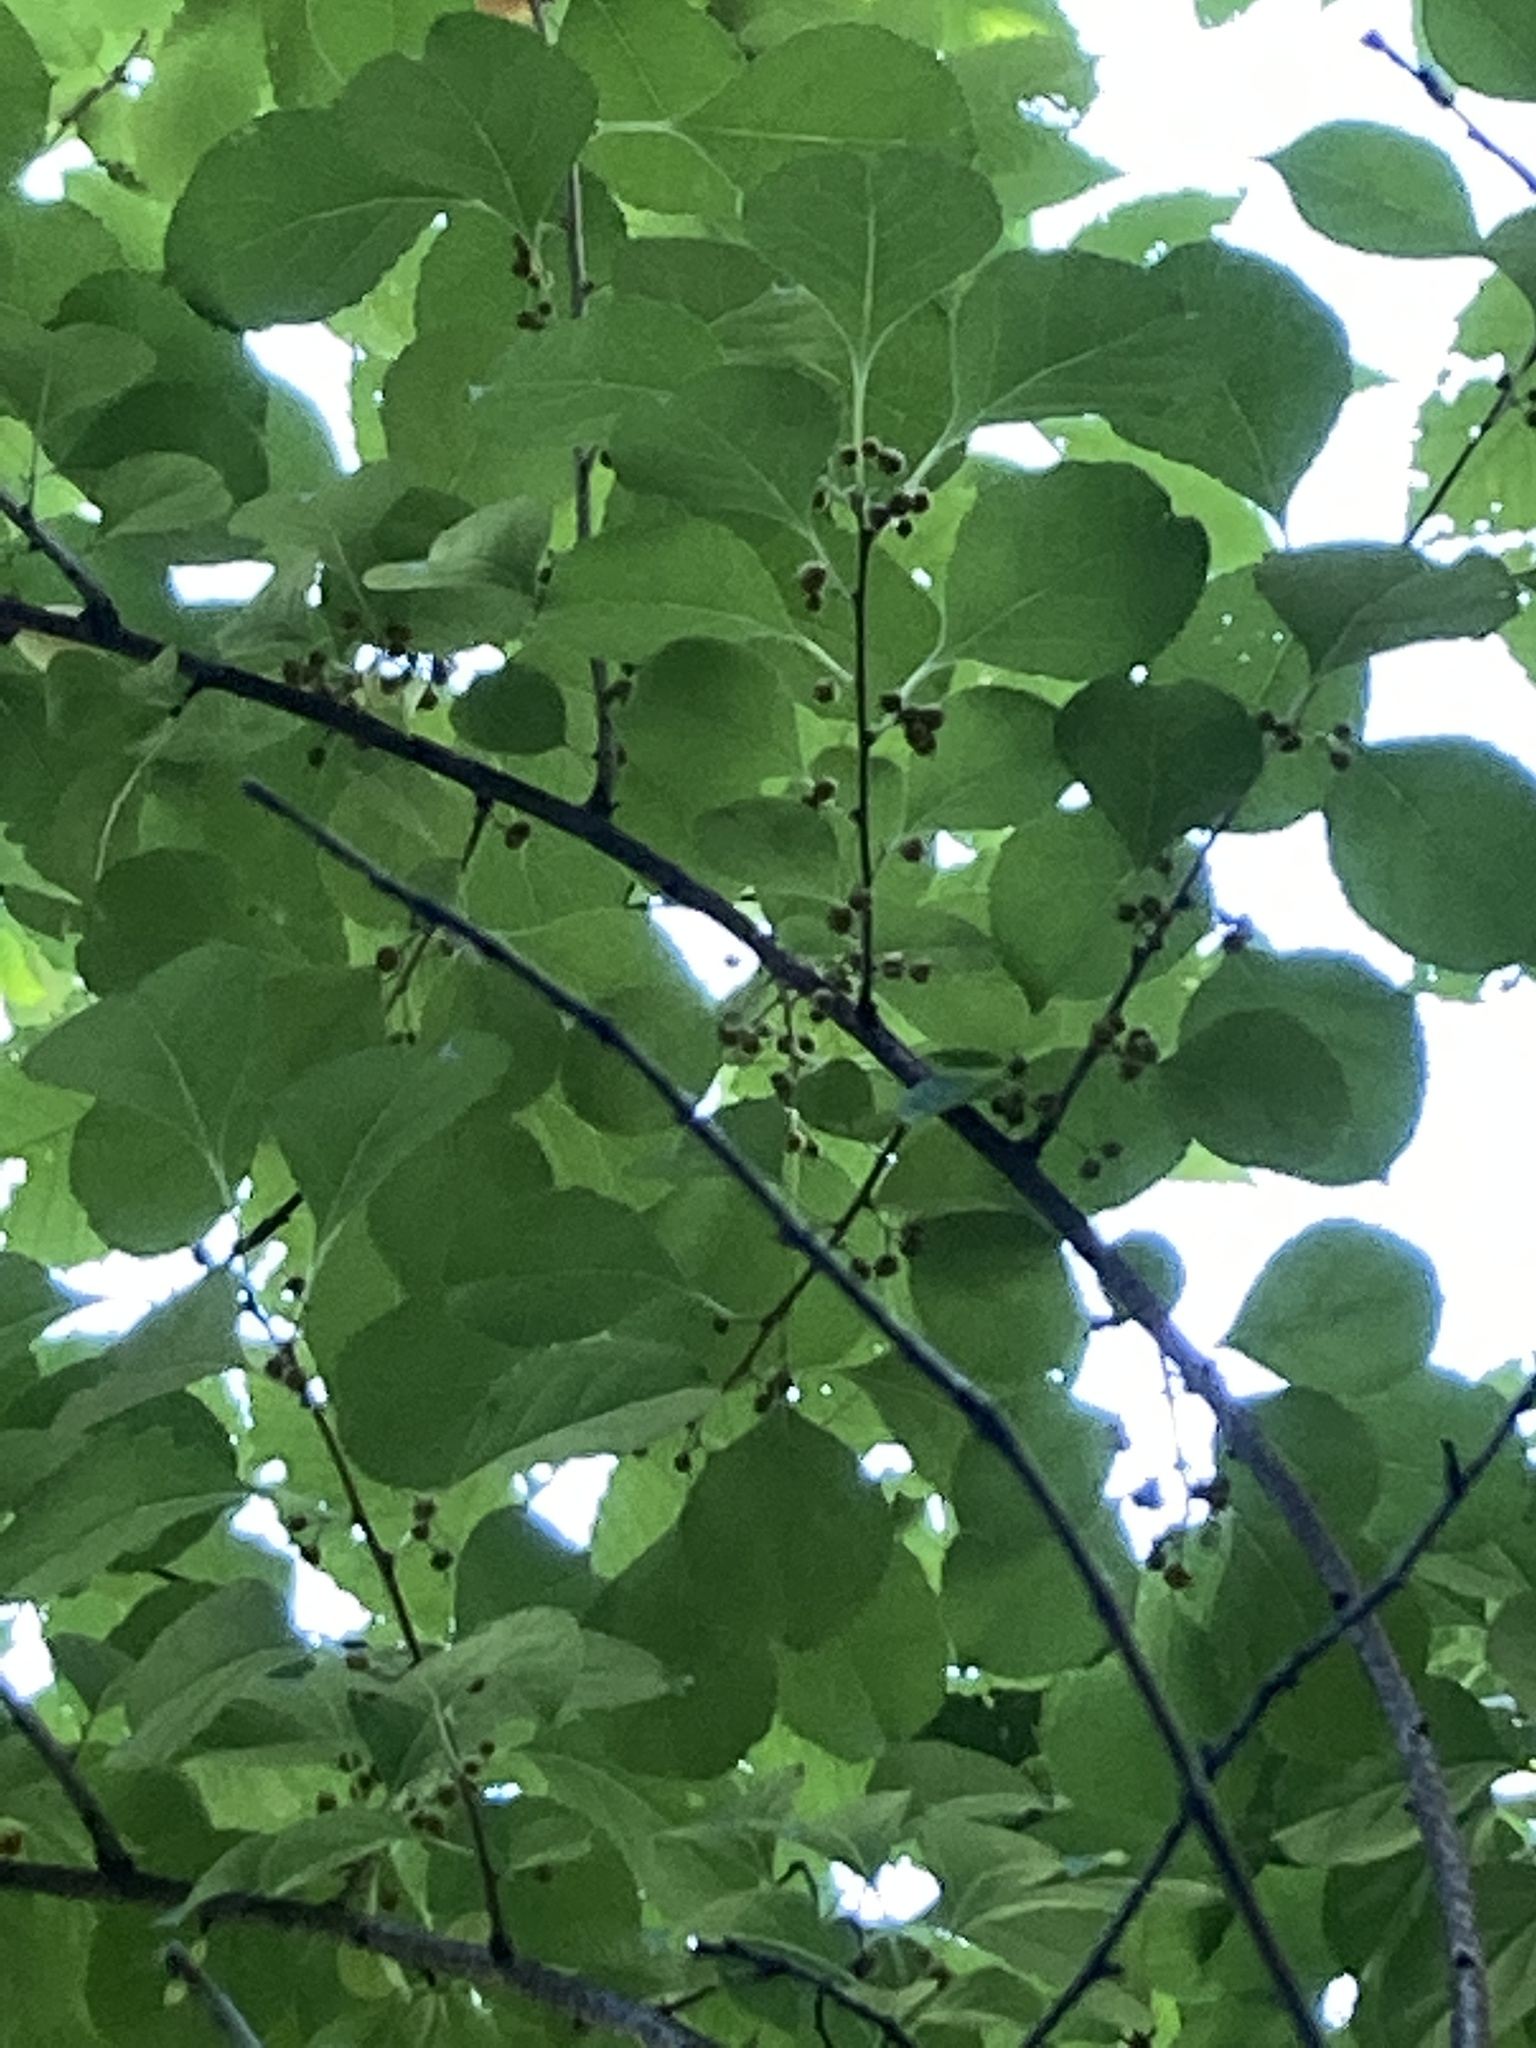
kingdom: Plantae
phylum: Tracheophyta
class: Magnoliopsida
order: Celastrales
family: Celastraceae
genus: Celastrus
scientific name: Celastrus orbiculatus
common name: Oriental bittersweet
